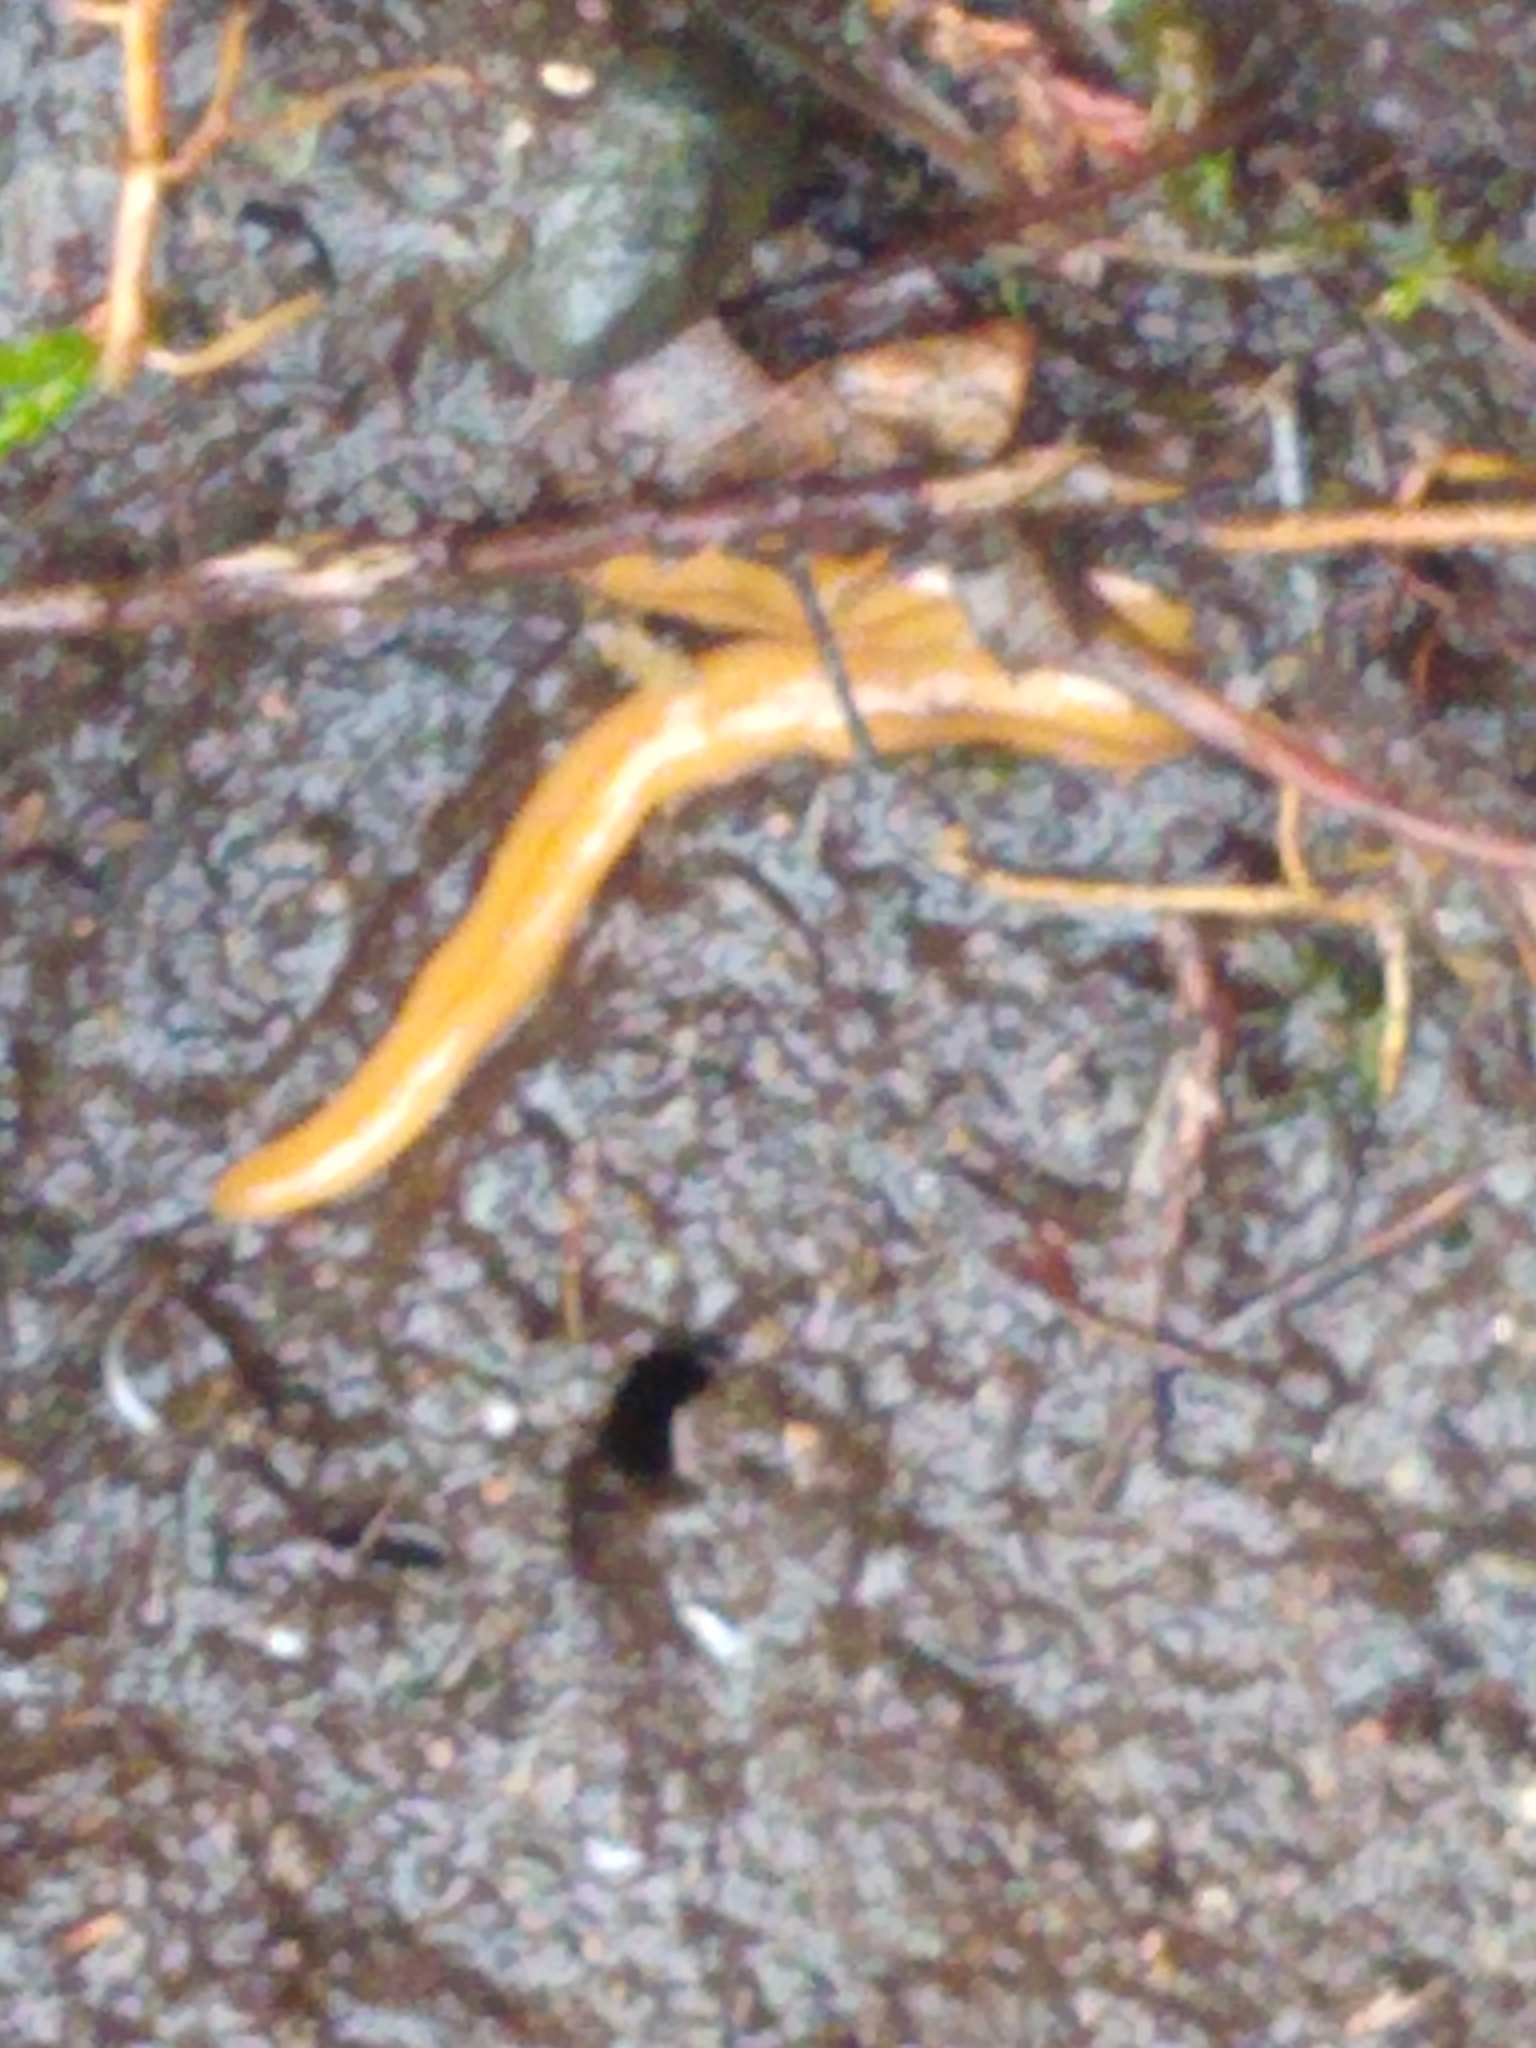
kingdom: Animalia
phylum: Platyhelminthes
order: Tricladida
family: Geoplanidae
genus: Bipalium
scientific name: Bipalium adventitium
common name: Land planarian
